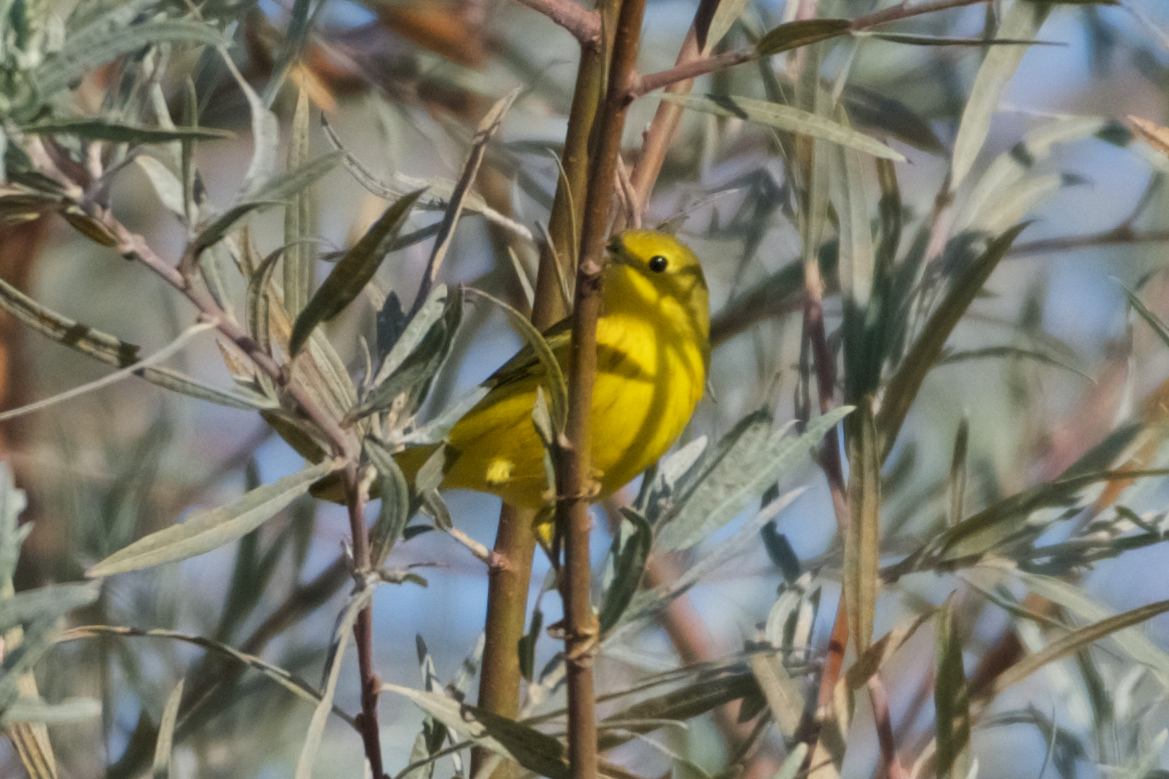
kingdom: Animalia
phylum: Chordata
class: Aves
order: Passeriformes
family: Parulidae
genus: Setophaga
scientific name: Setophaga petechia
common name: Yellow warbler
